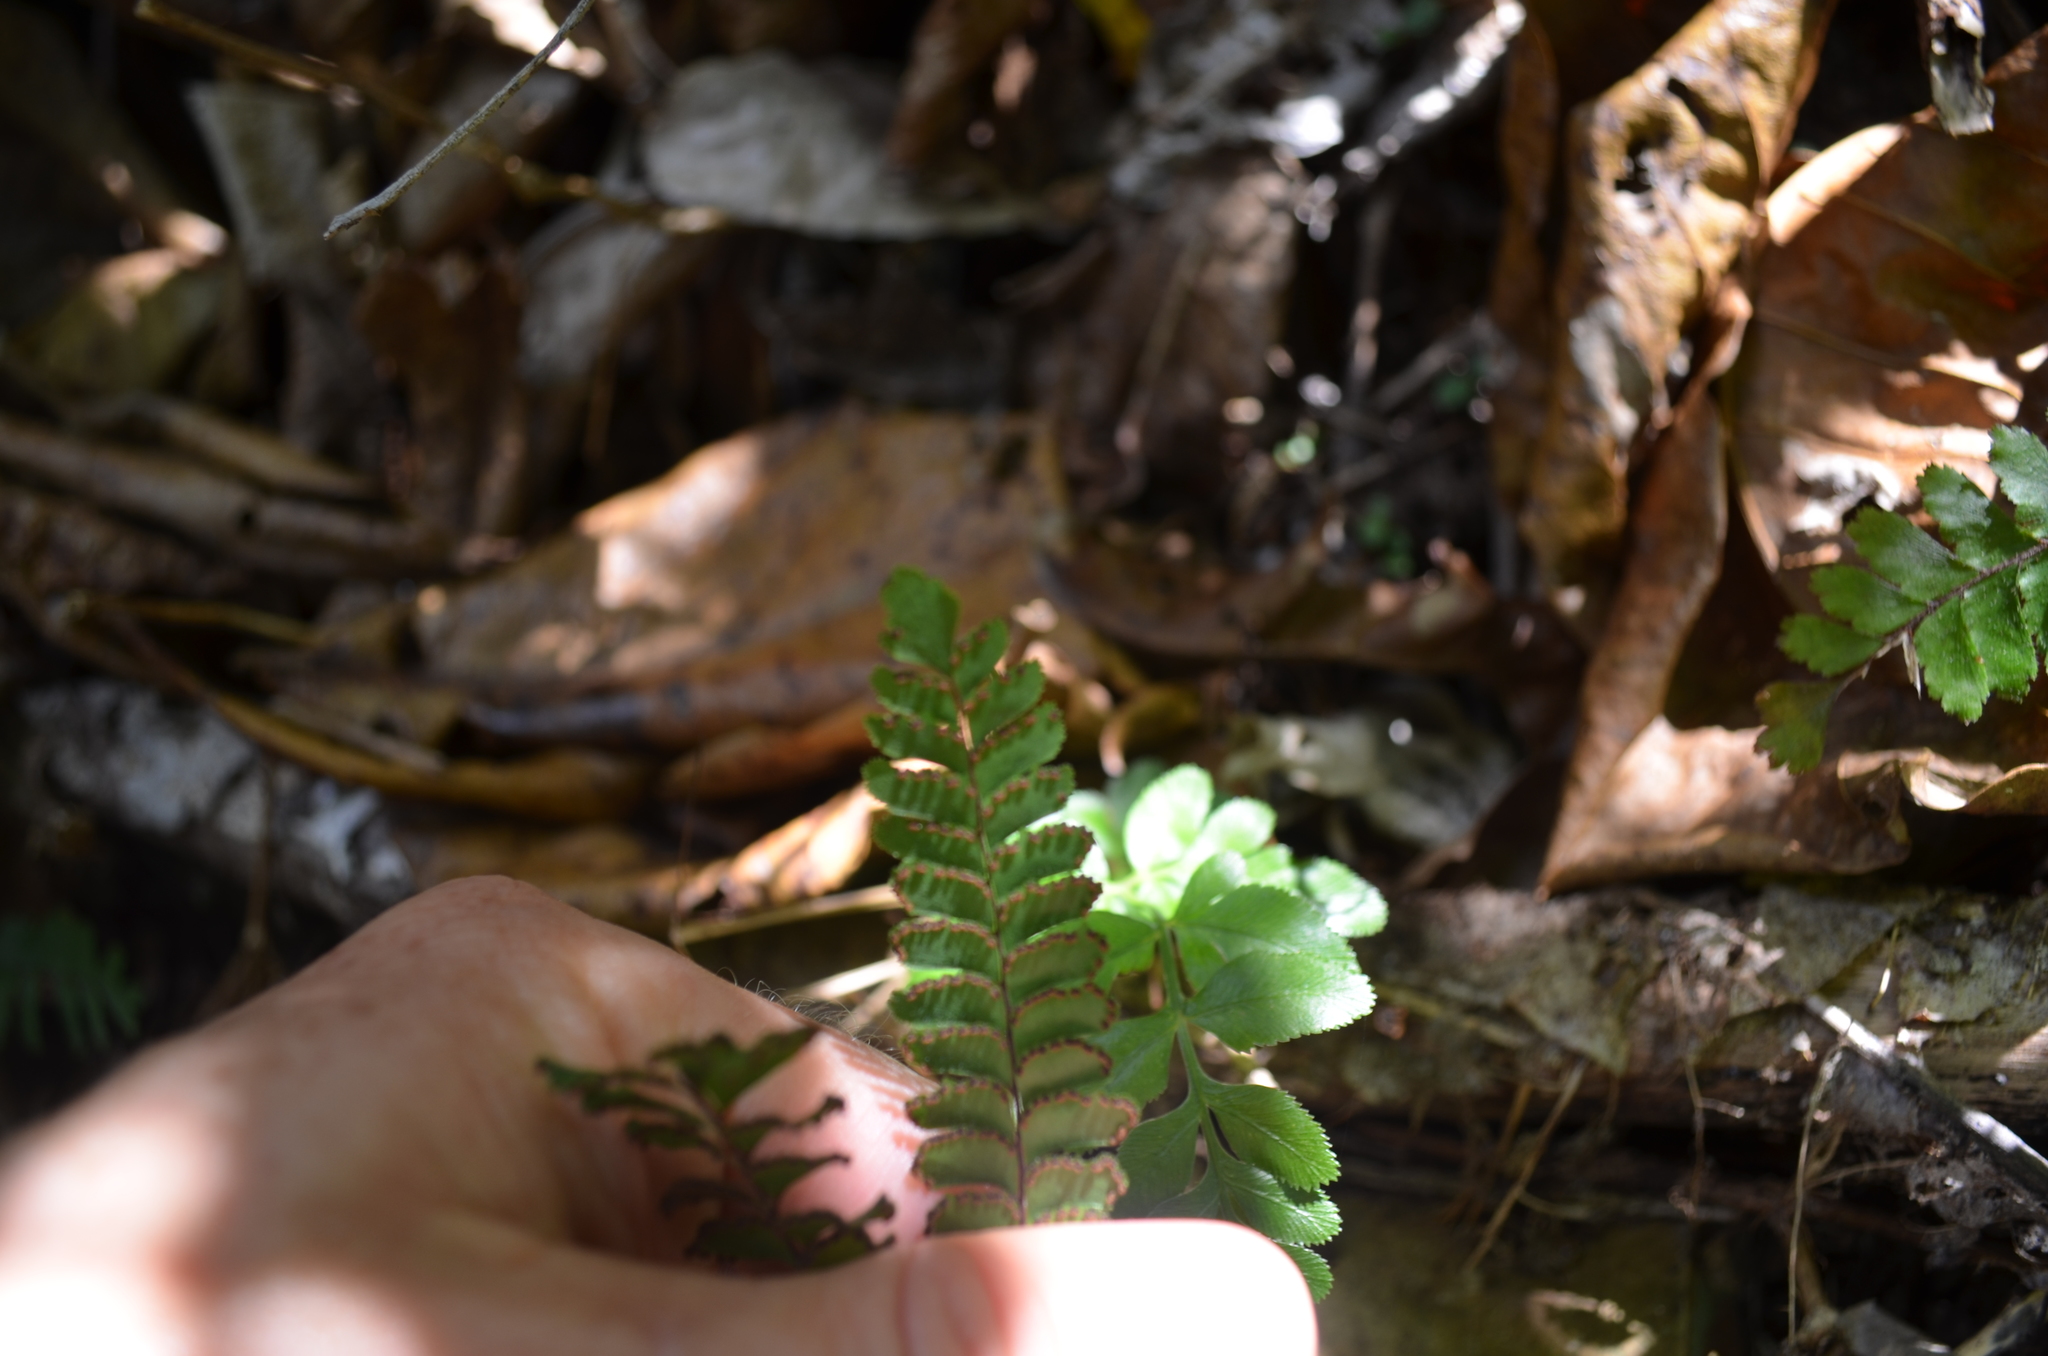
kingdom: Plantae
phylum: Tracheophyta
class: Polypodiopsida
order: Polypodiales
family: Pteridaceae
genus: Adiantum
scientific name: Adiantum hispidulum
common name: Rough maidenhair
